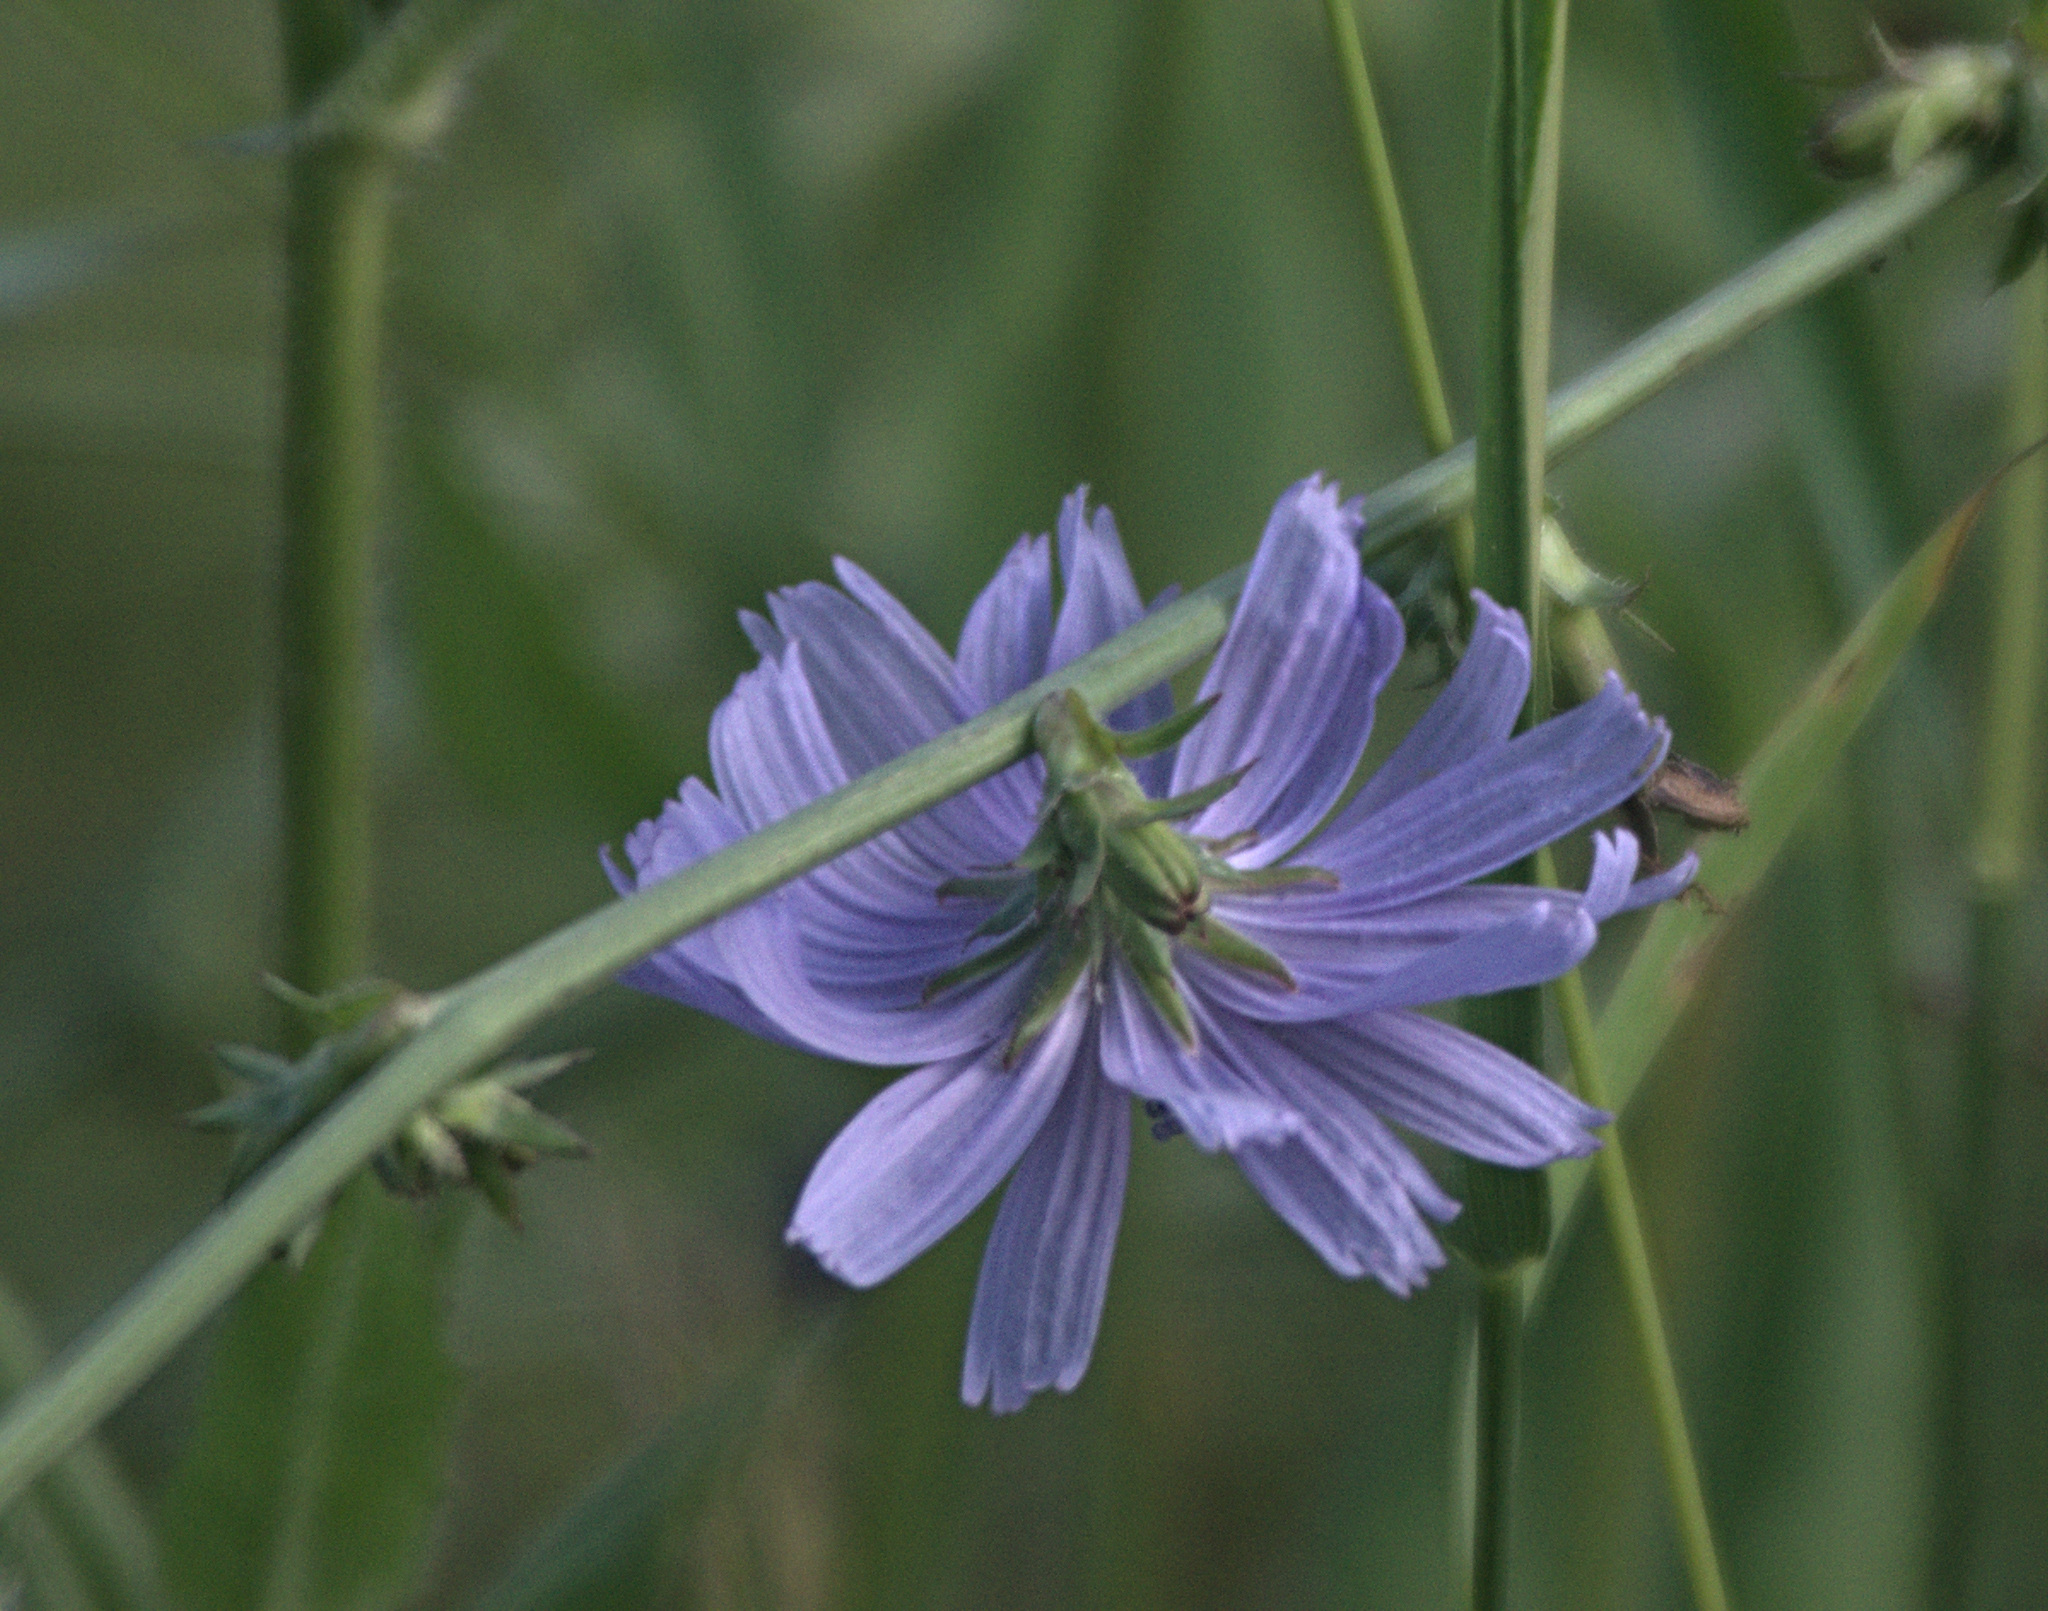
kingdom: Plantae
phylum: Tracheophyta
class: Magnoliopsida
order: Asterales
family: Asteraceae
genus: Cichorium
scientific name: Cichorium intybus
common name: Chicory
